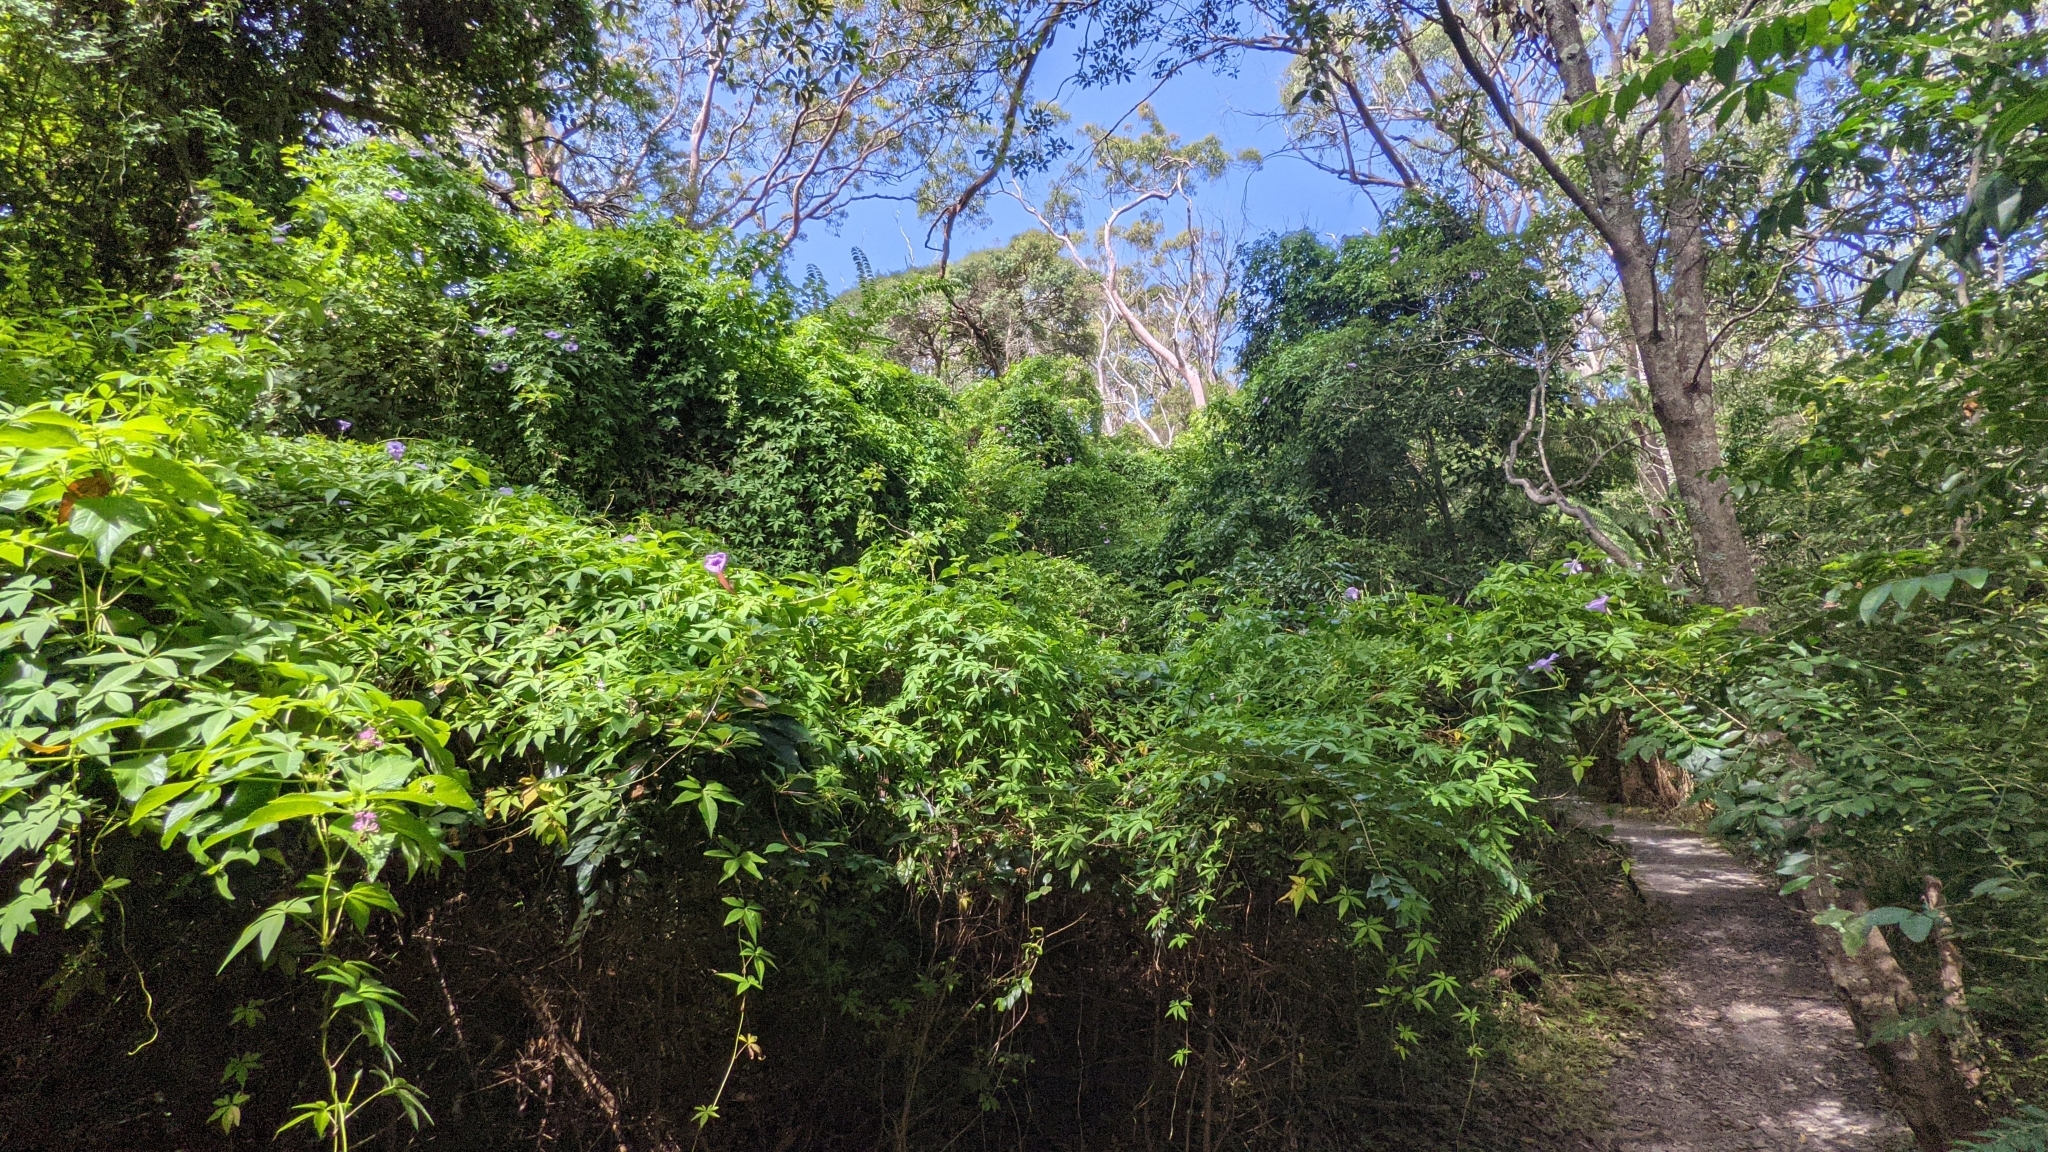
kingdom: Plantae
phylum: Tracheophyta
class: Magnoliopsida
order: Solanales
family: Convolvulaceae
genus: Ipomoea
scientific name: Ipomoea cairica
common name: Mile a minute vine
